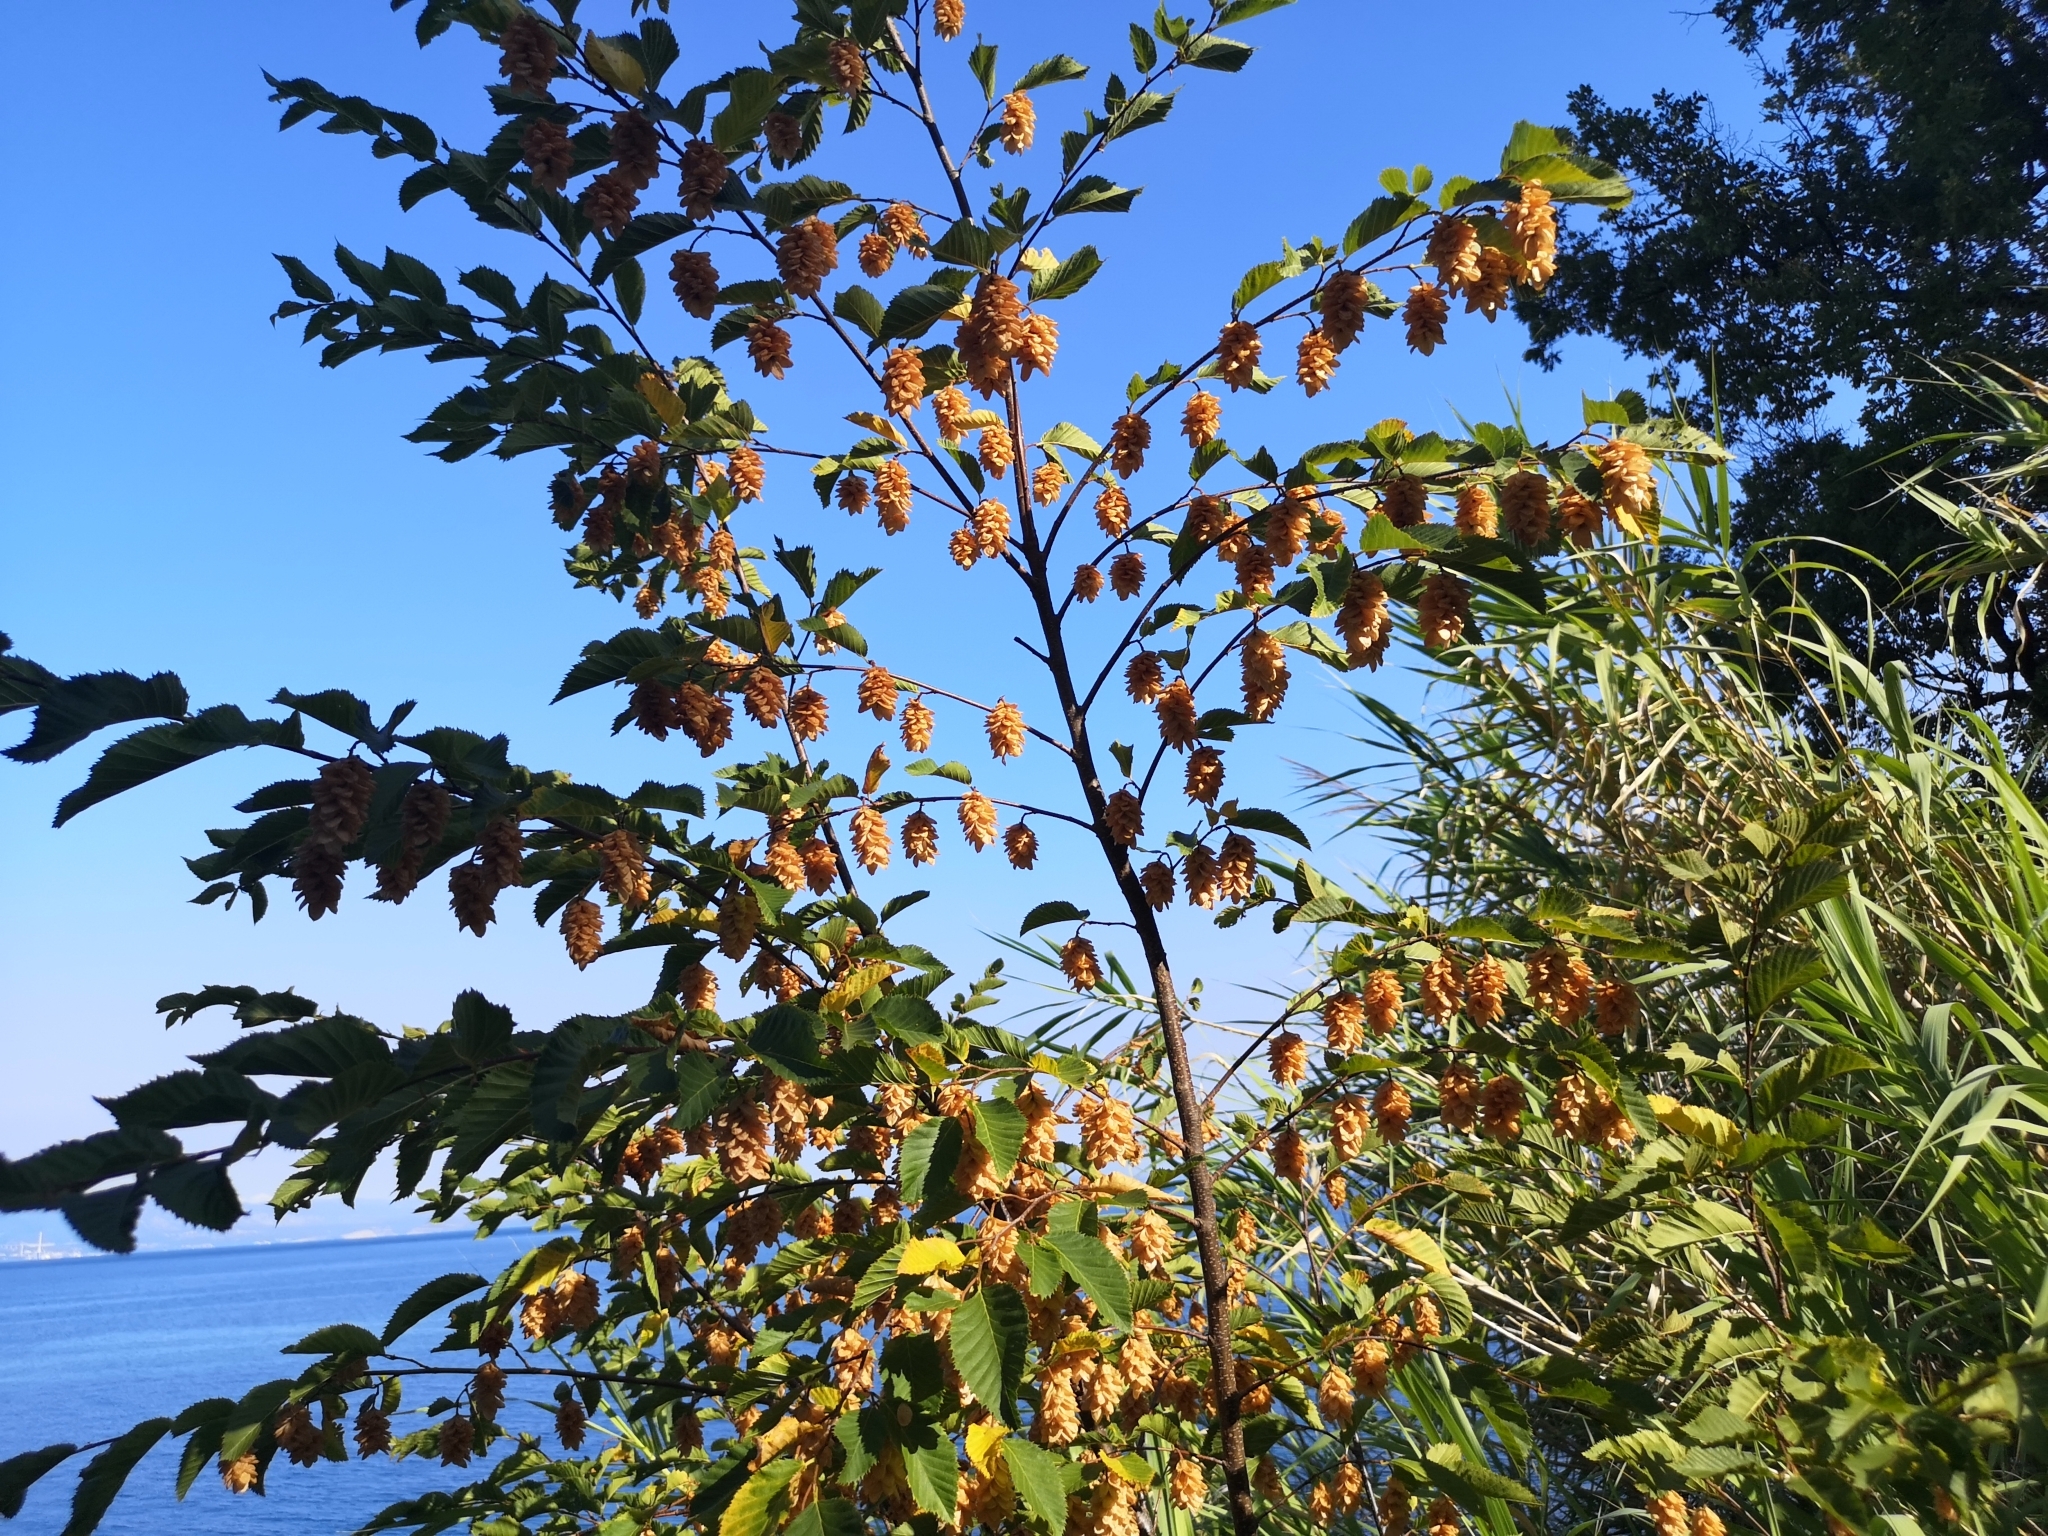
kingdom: Plantae
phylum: Tracheophyta
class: Magnoliopsida
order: Fagales
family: Betulaceae
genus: Ostrya
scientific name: Ostrya carpinifolia
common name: European hop-hornbeam
